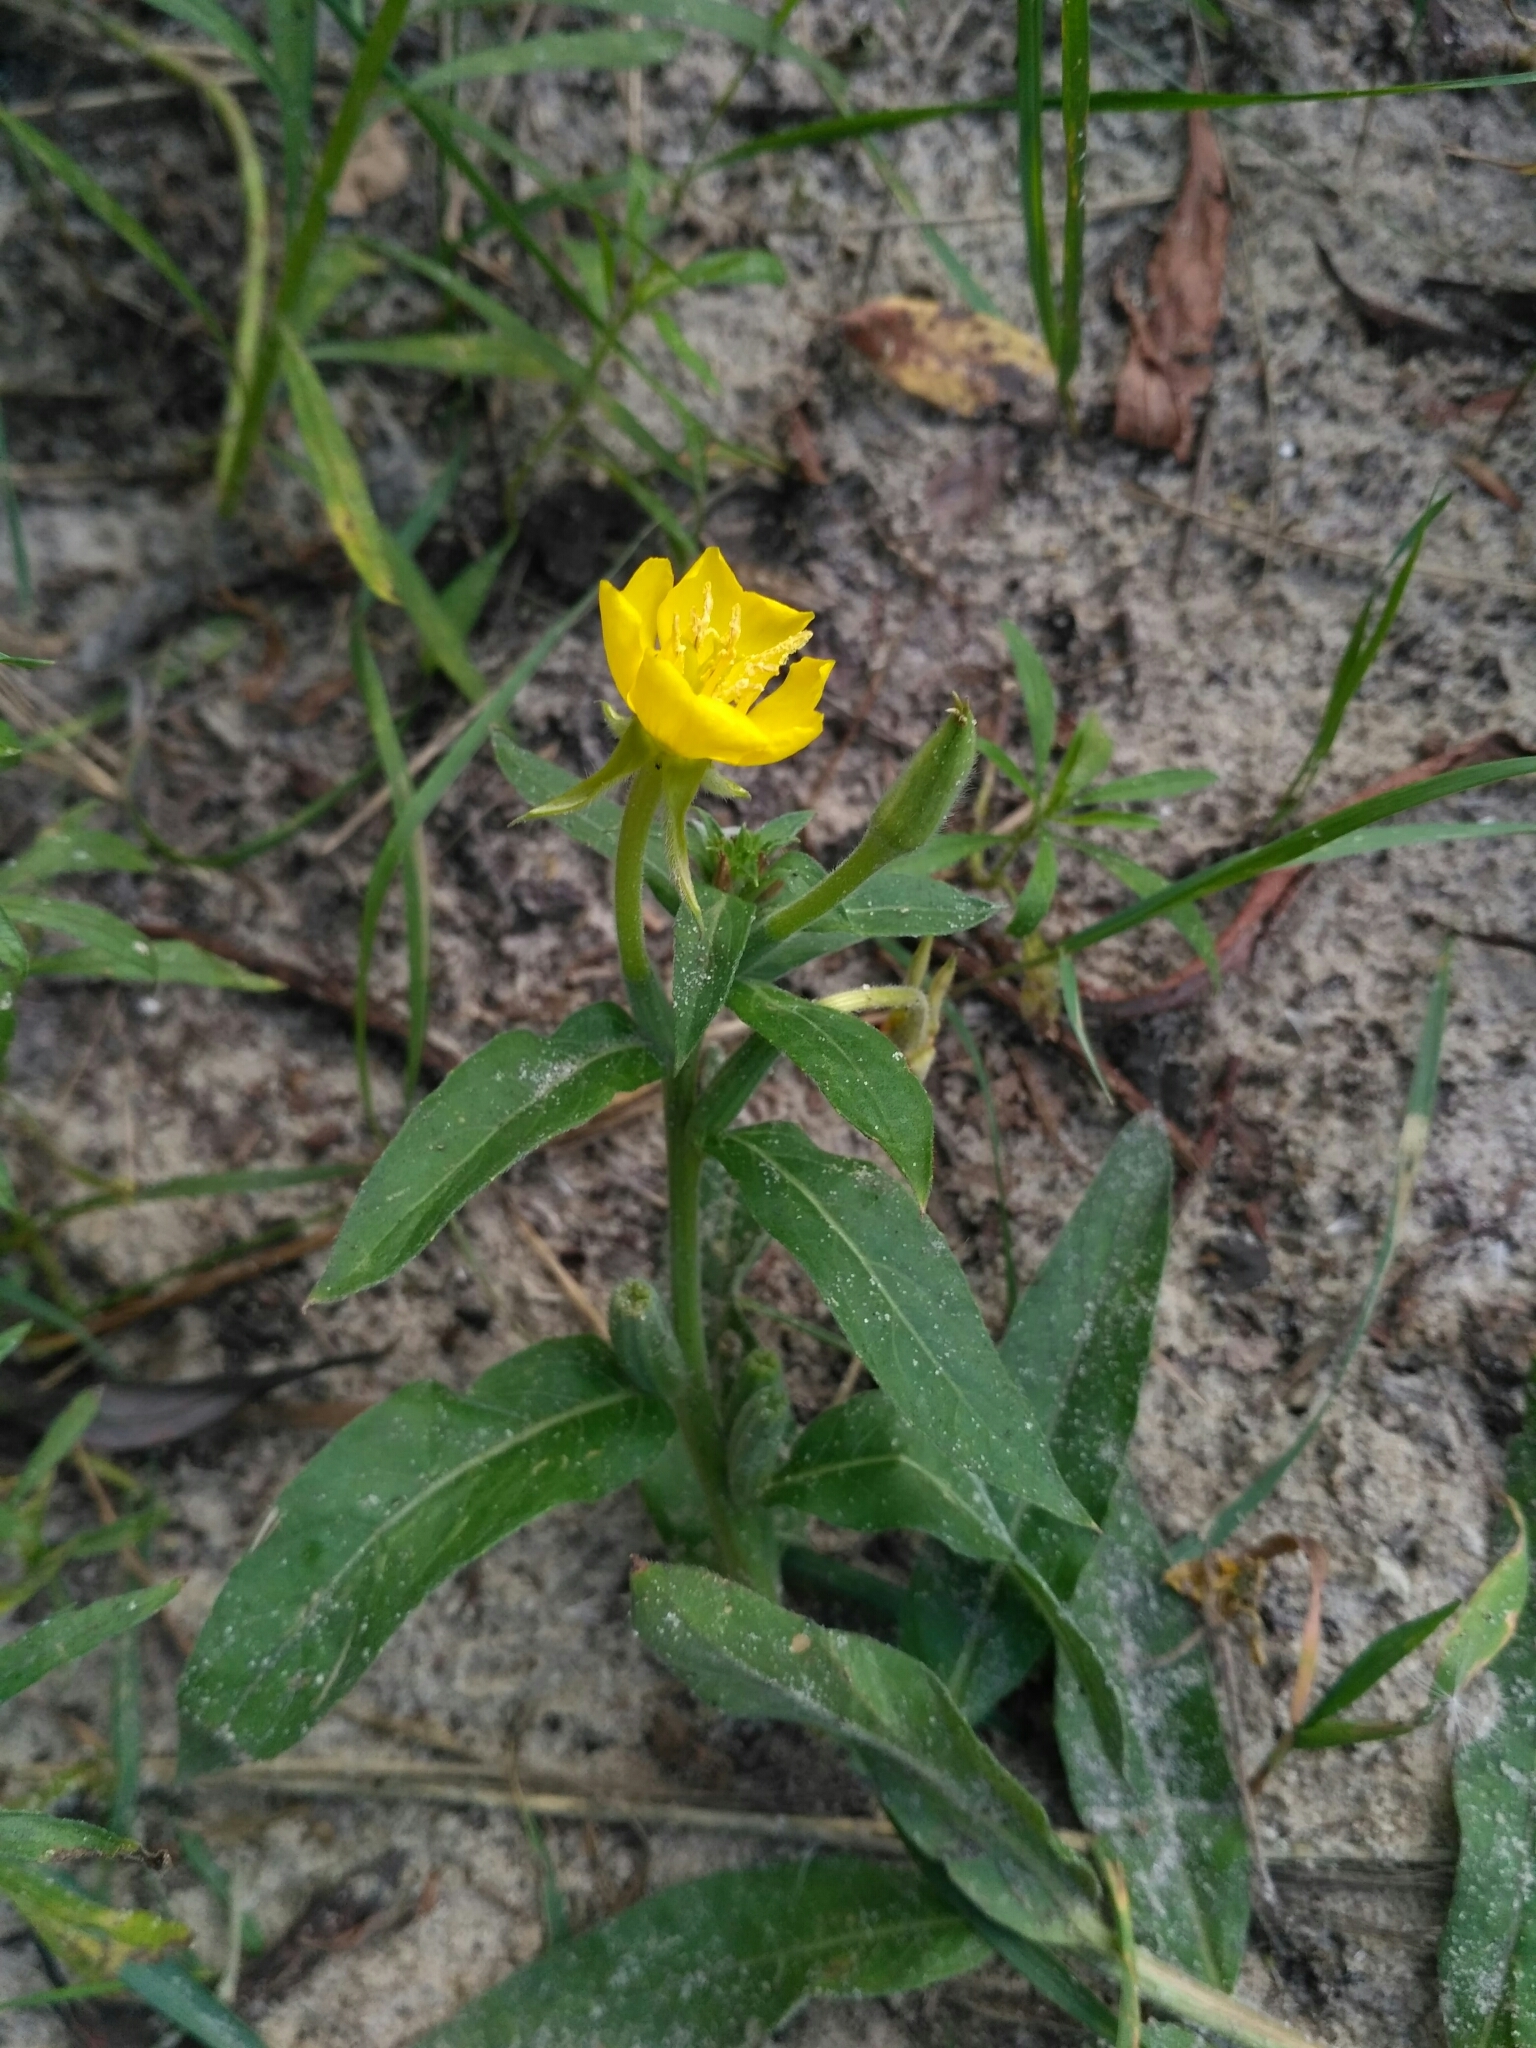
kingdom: Plantae
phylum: Tracheophyta
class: Magnoliopsida
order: Myrtales
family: Onagraceae
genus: Oenothera
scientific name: Oenothera villosa
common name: Hairy evening-primrose
